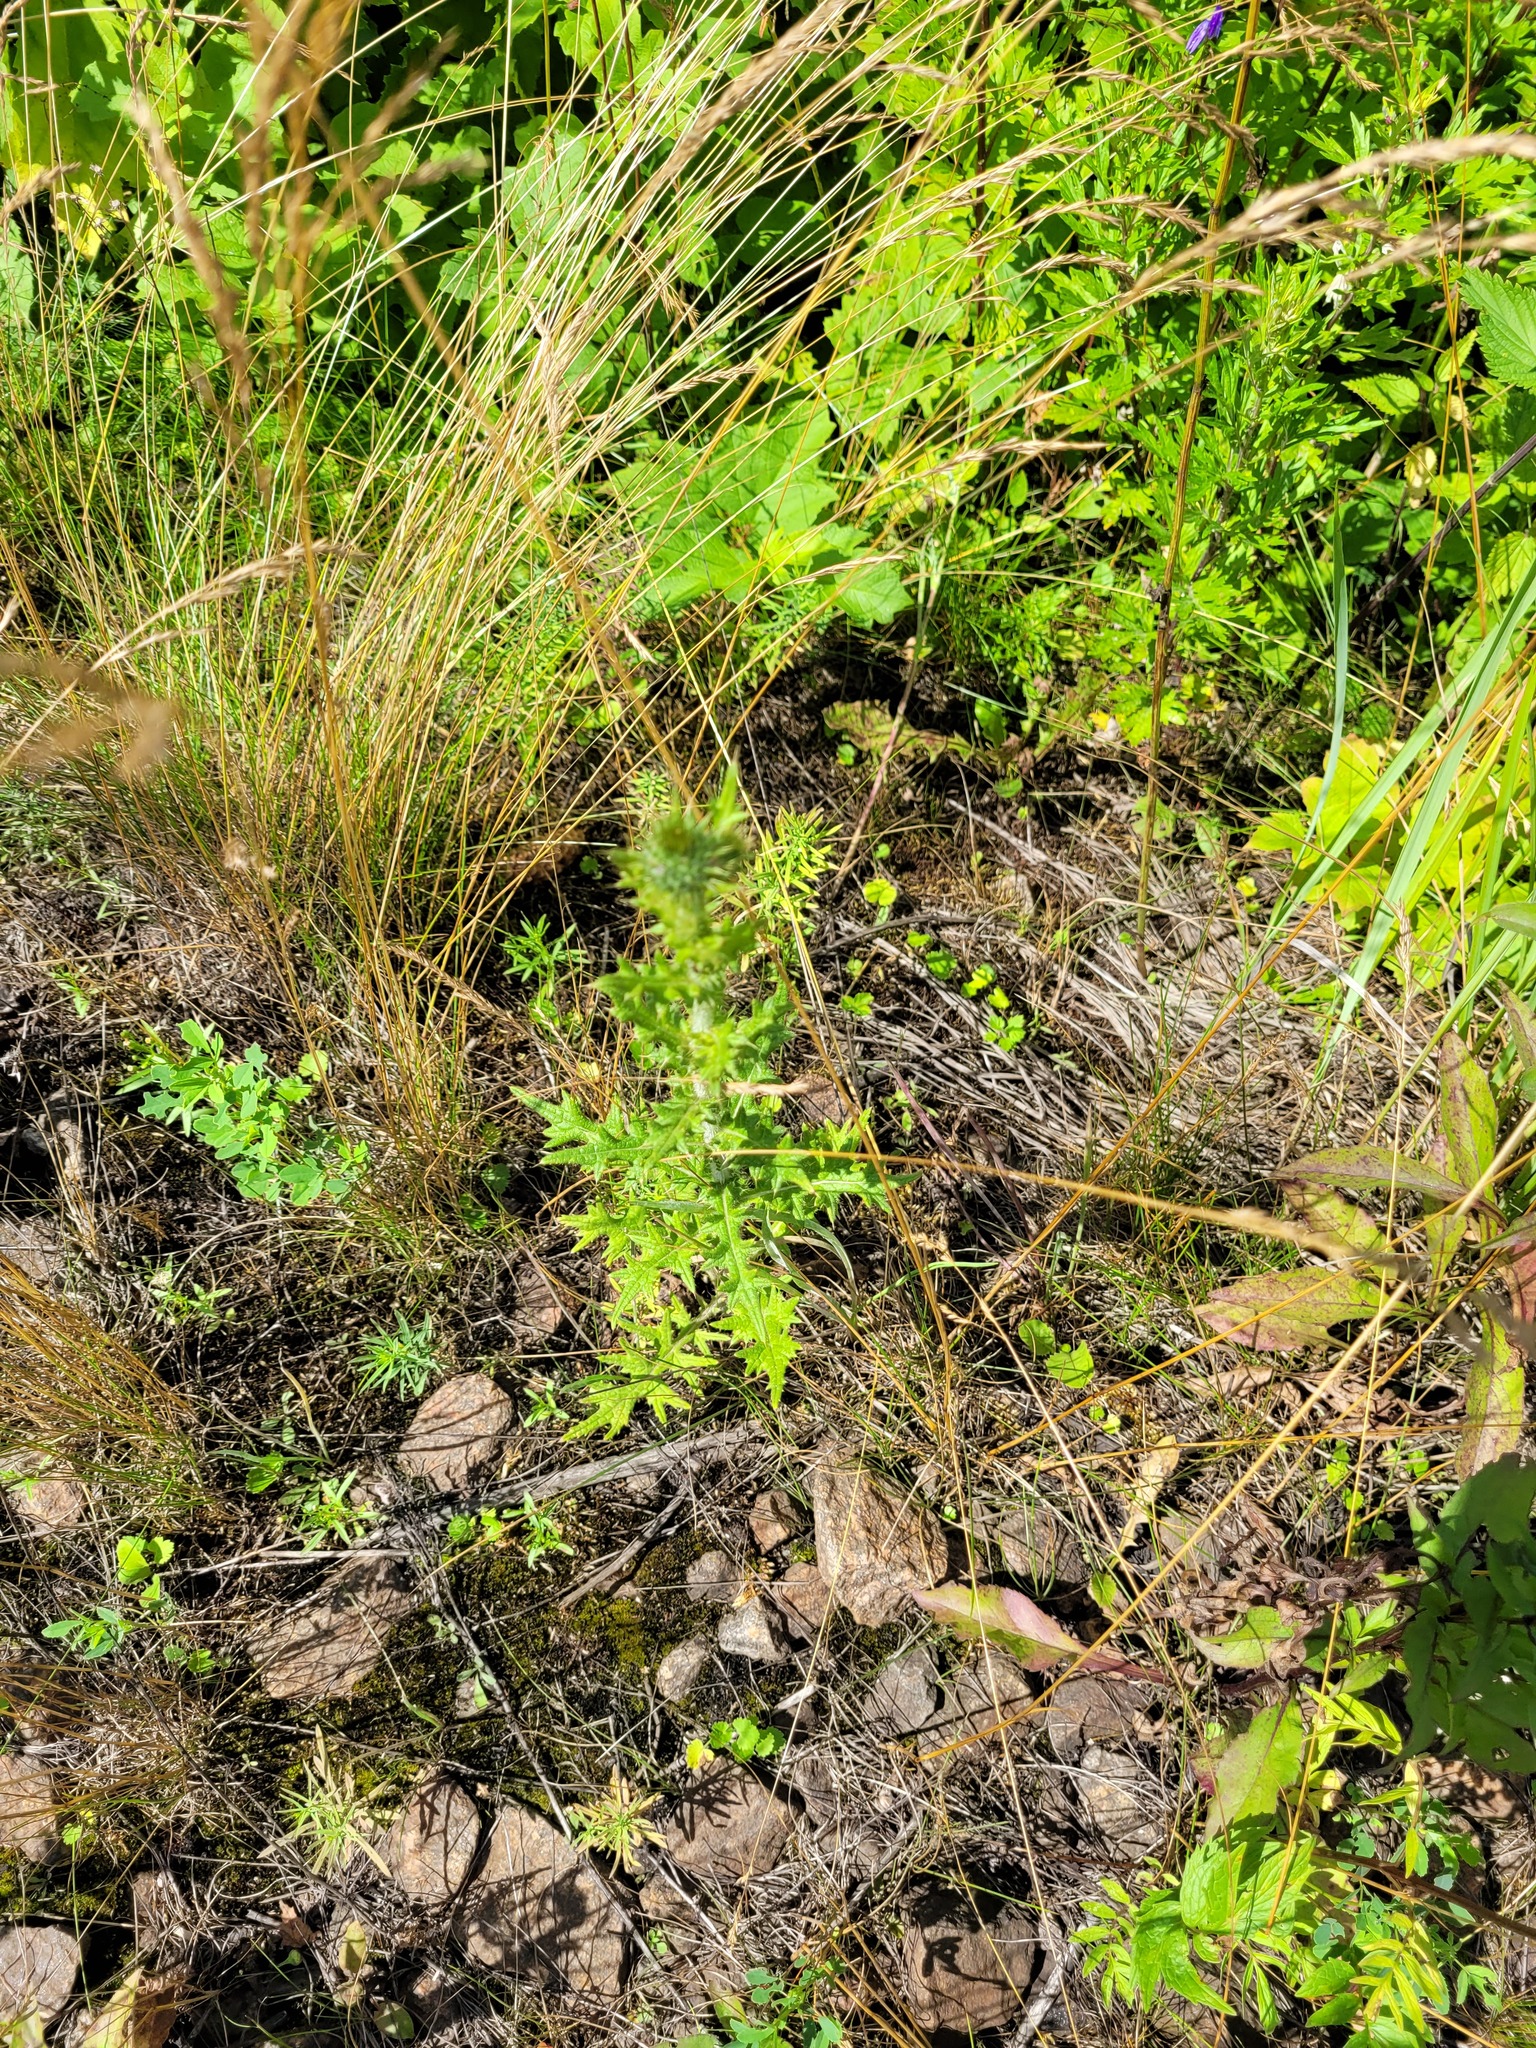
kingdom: Plantae
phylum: Tracheophyta
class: Magnoliopsida
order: Asterales
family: Asteraceae
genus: Cirsium
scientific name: Cirsium vulgare
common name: Bull thistle
